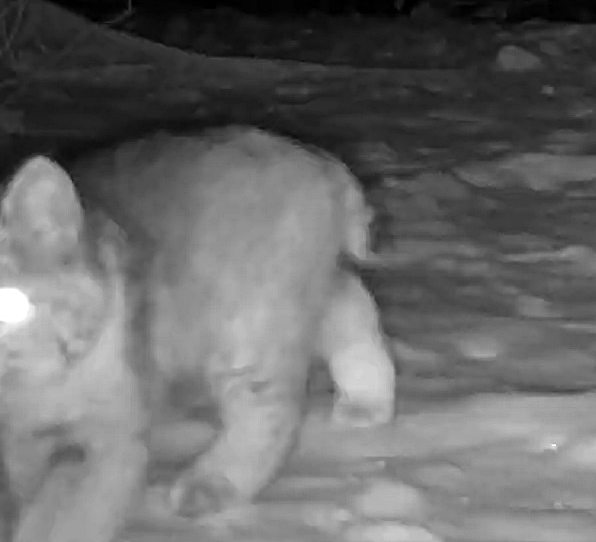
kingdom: Animalia
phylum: Chordata
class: Mammalia
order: Carnivora
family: Felidae
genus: Lynx
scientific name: Lynx rufus
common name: Bobcat
